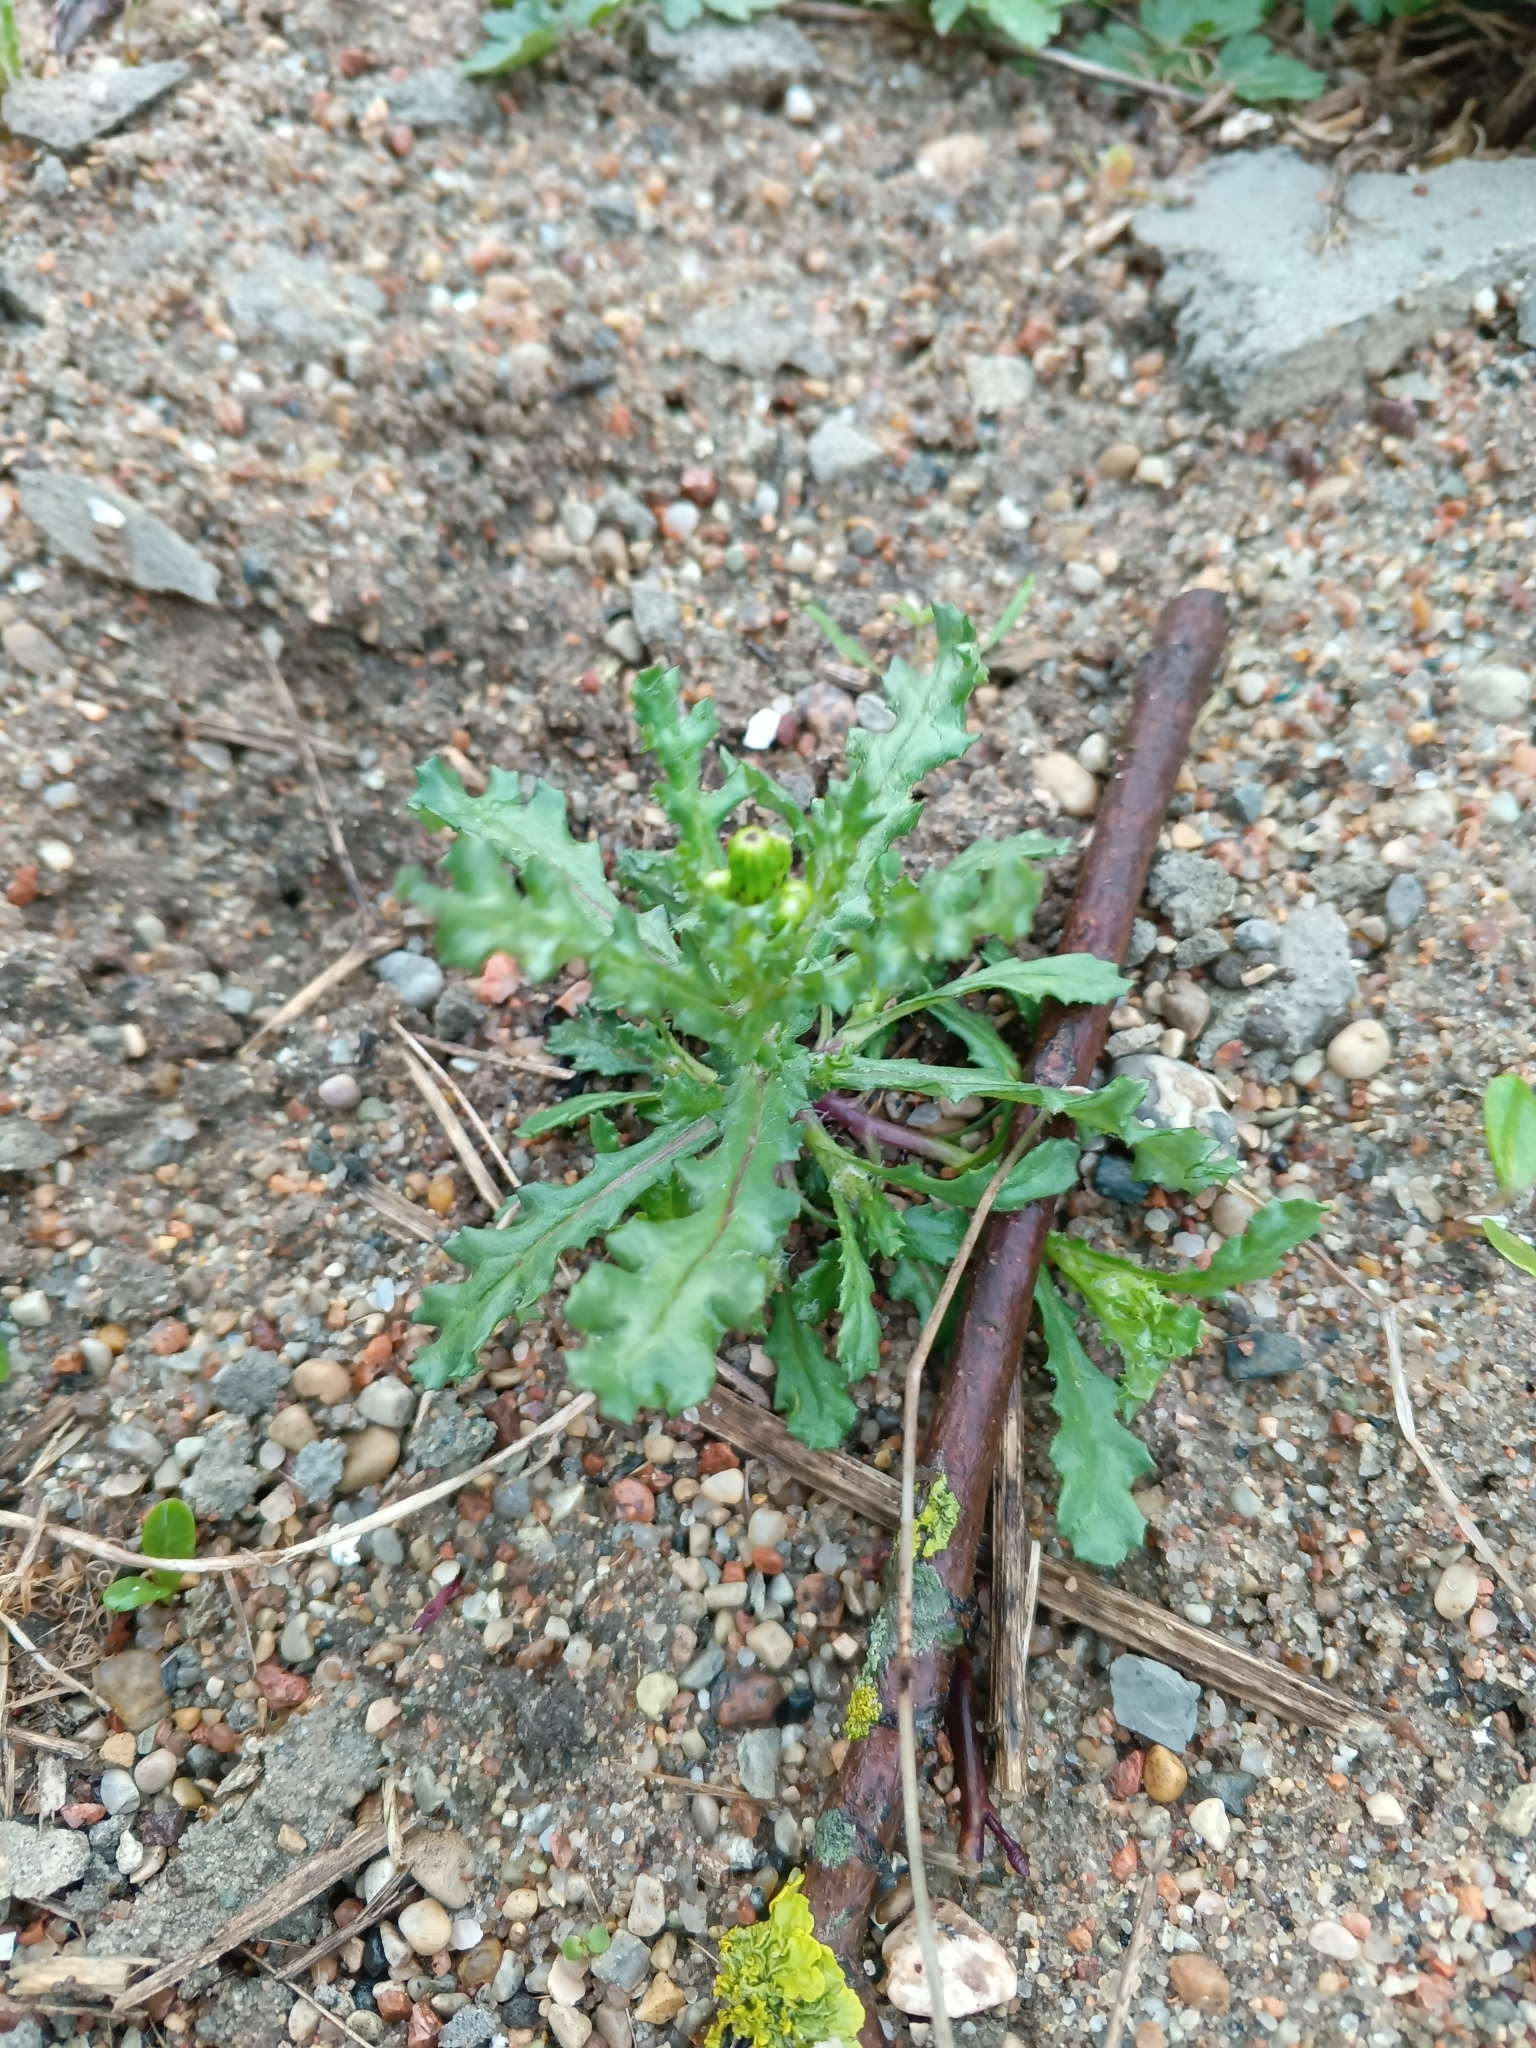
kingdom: Plantae
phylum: Tracheophyta
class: Magnoliopsida
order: Asterales
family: Asteraceae
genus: Senecio
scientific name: Senecio vulgaris
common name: Old-man-in-the-spring
